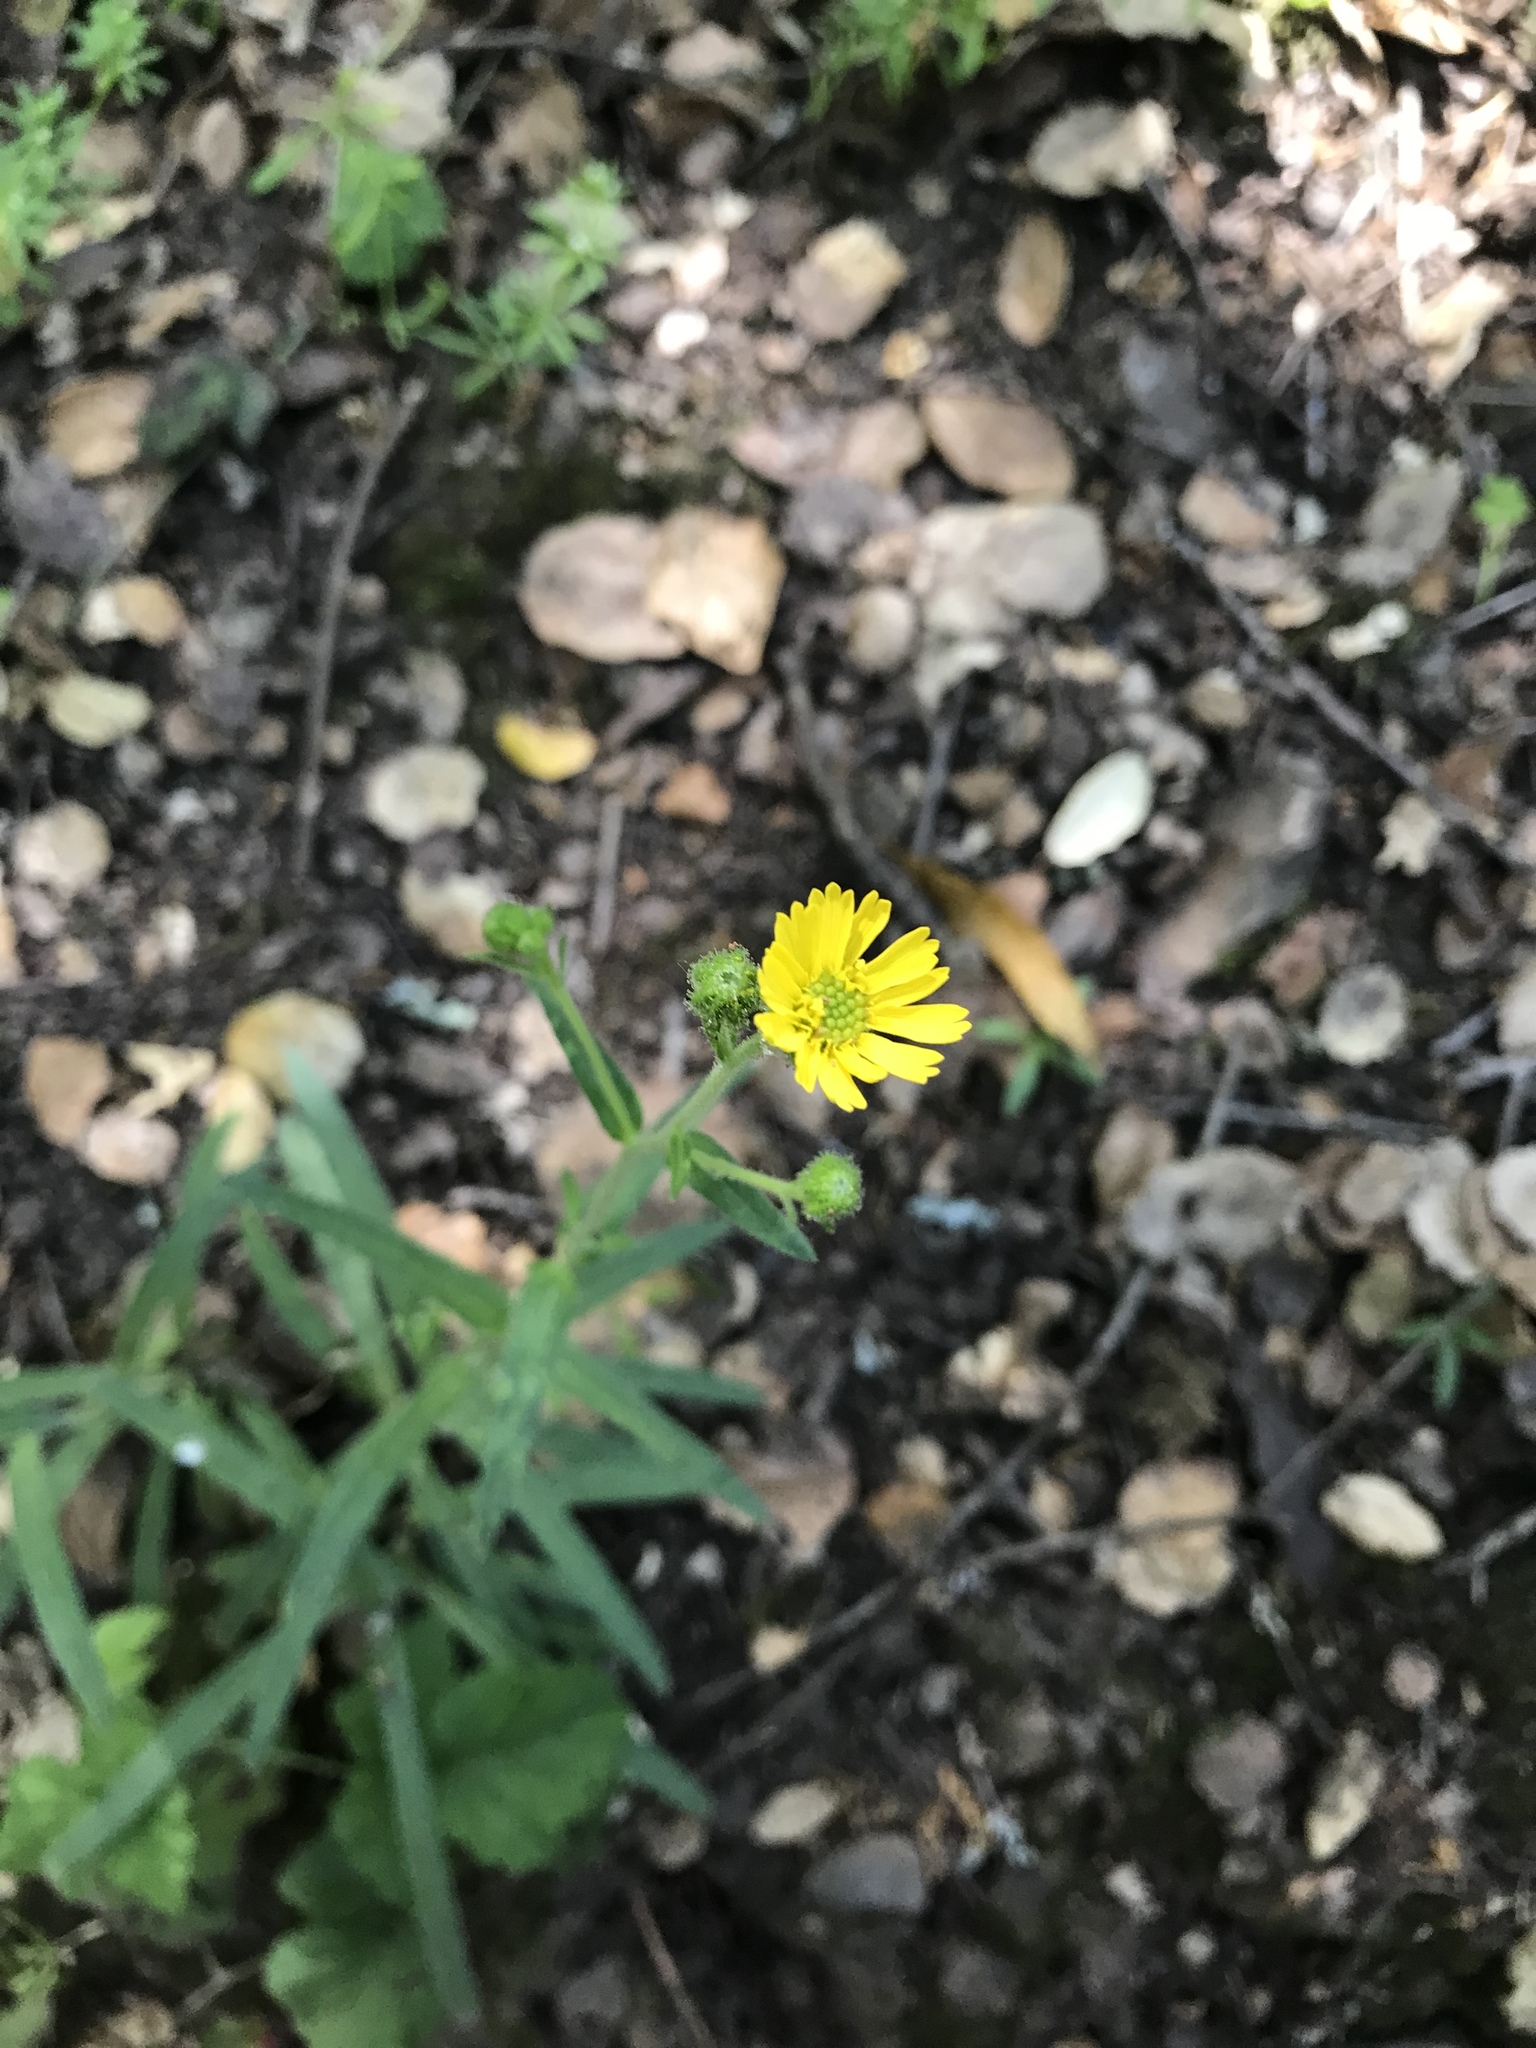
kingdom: Plantae
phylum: Tracheophyta
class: Magnoliopsida
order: Asterales
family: Asteraceae
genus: Anisocarpus
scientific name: Anisocarpus madioides
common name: Woodland madia
